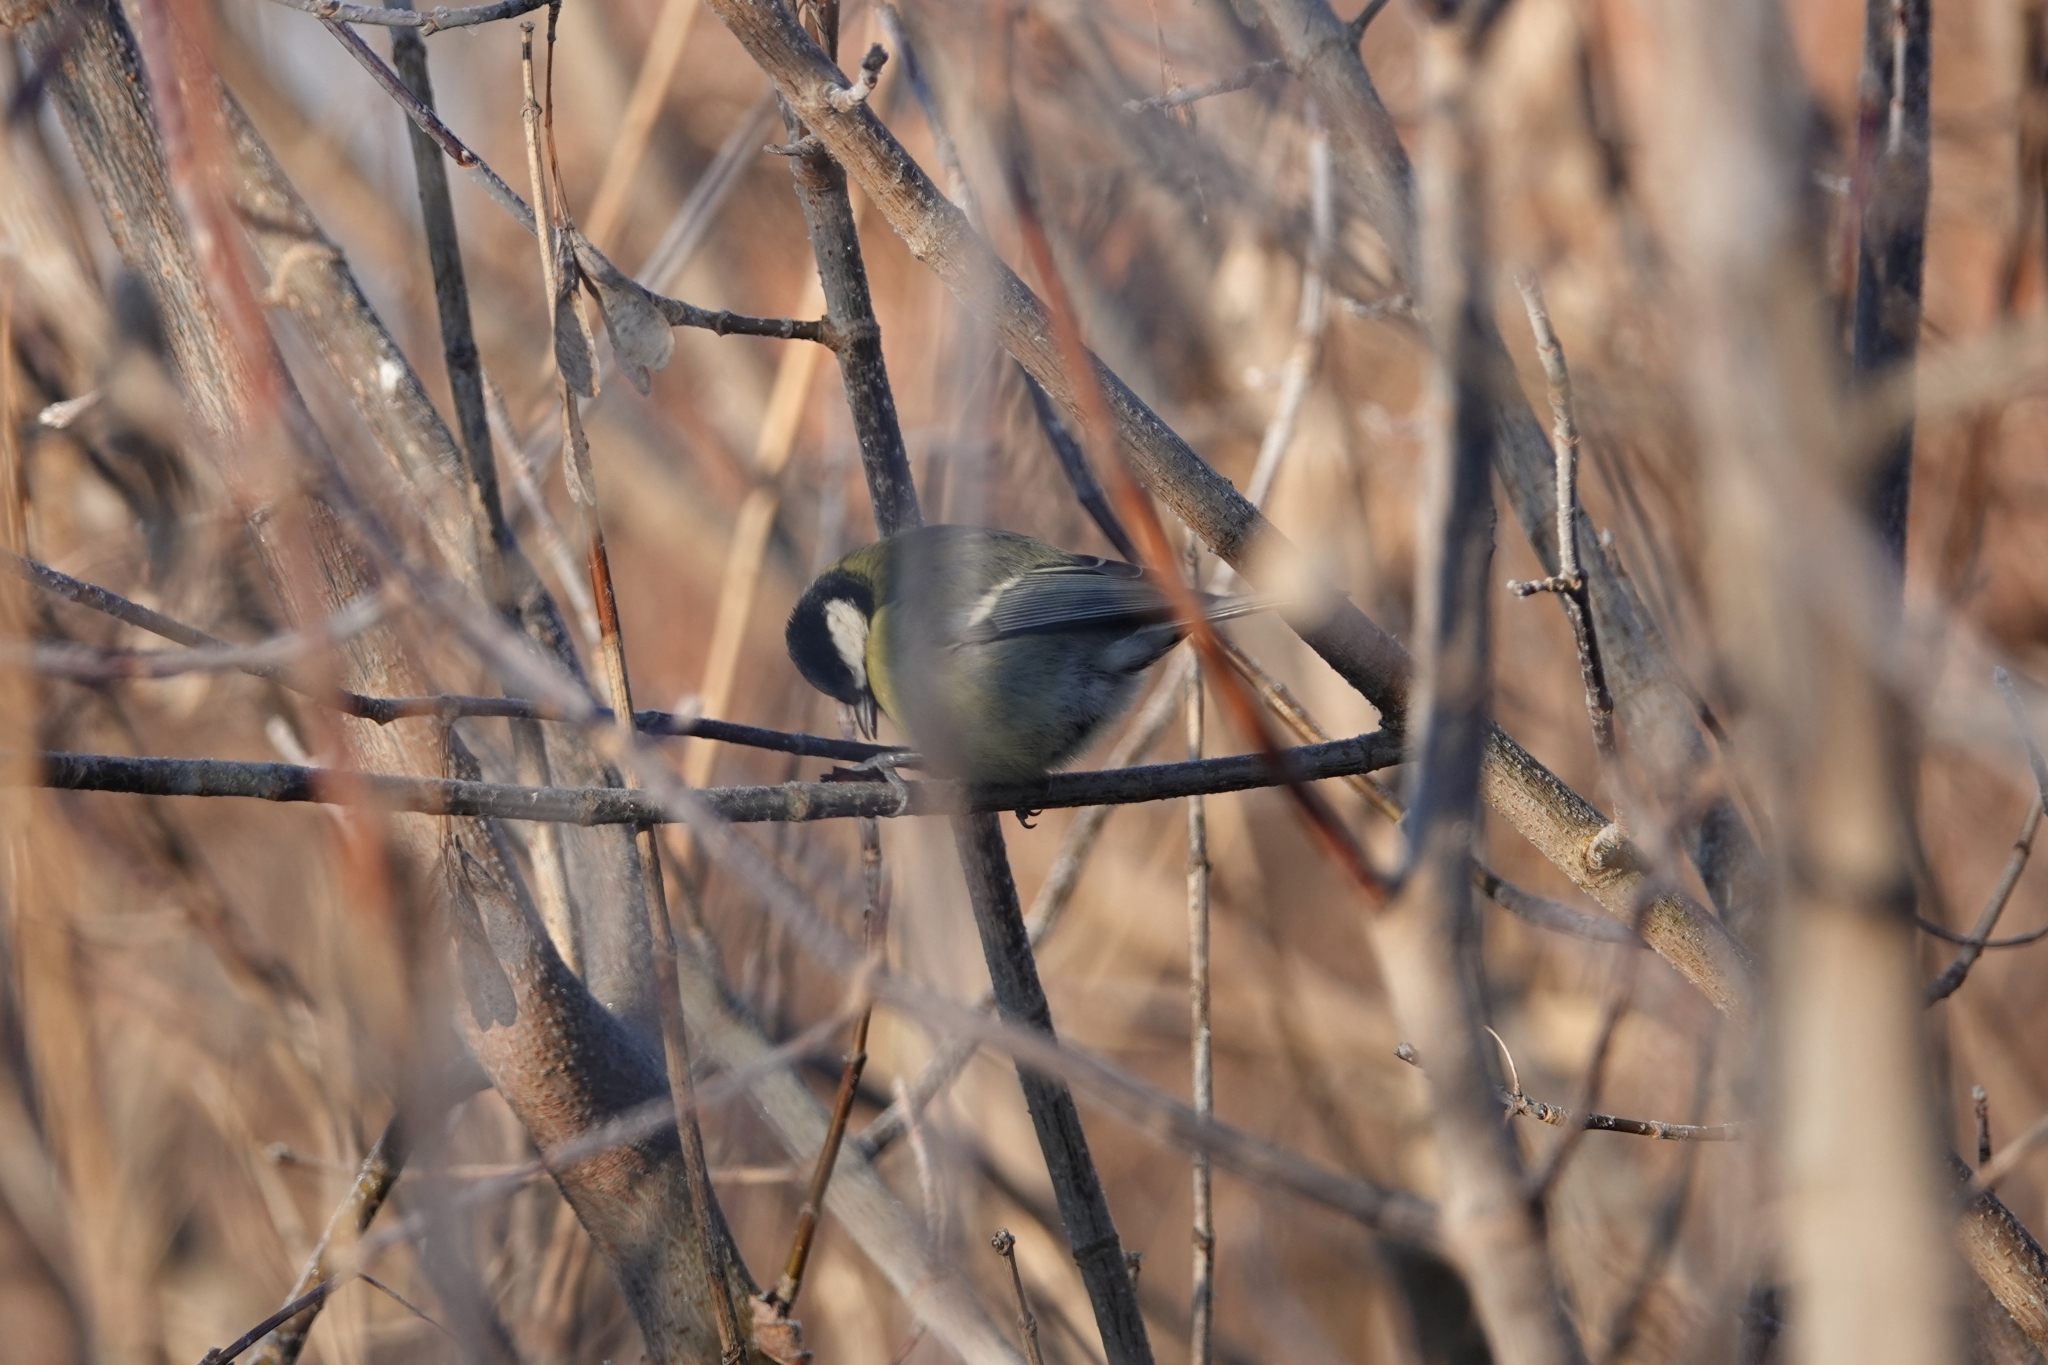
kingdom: Animalia
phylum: Chordata
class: Aves
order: Passeriformes
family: Paridae
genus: Parus
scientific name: Parus major
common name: Great tit
